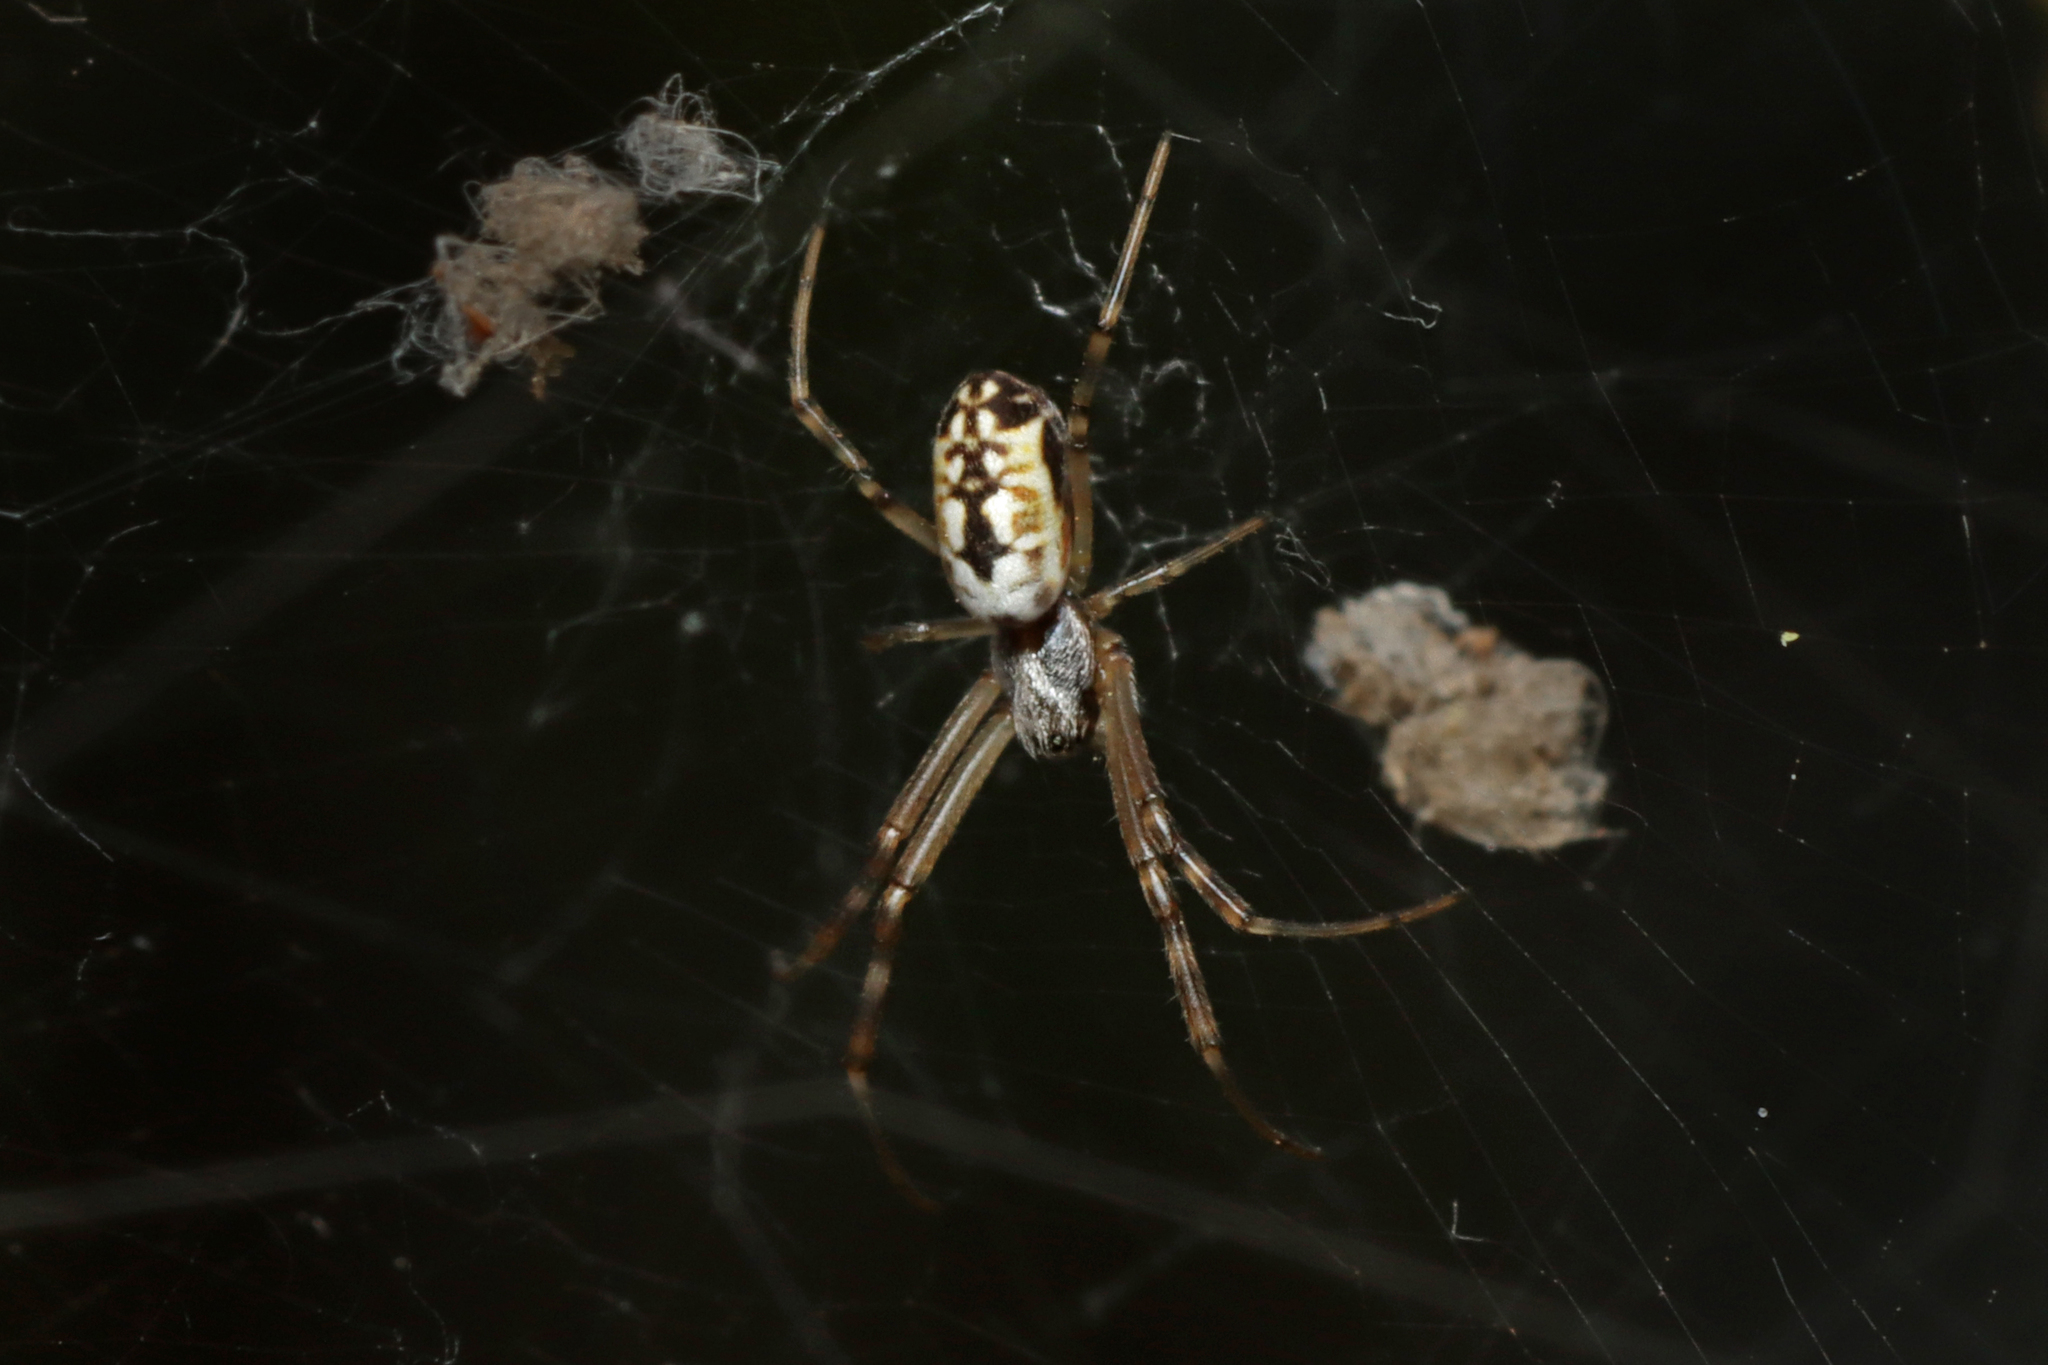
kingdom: Animalia
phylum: Arthropoda
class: Arachnida
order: Araneae
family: Araneidae
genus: Trichonephila
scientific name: Trichonephila edulis
